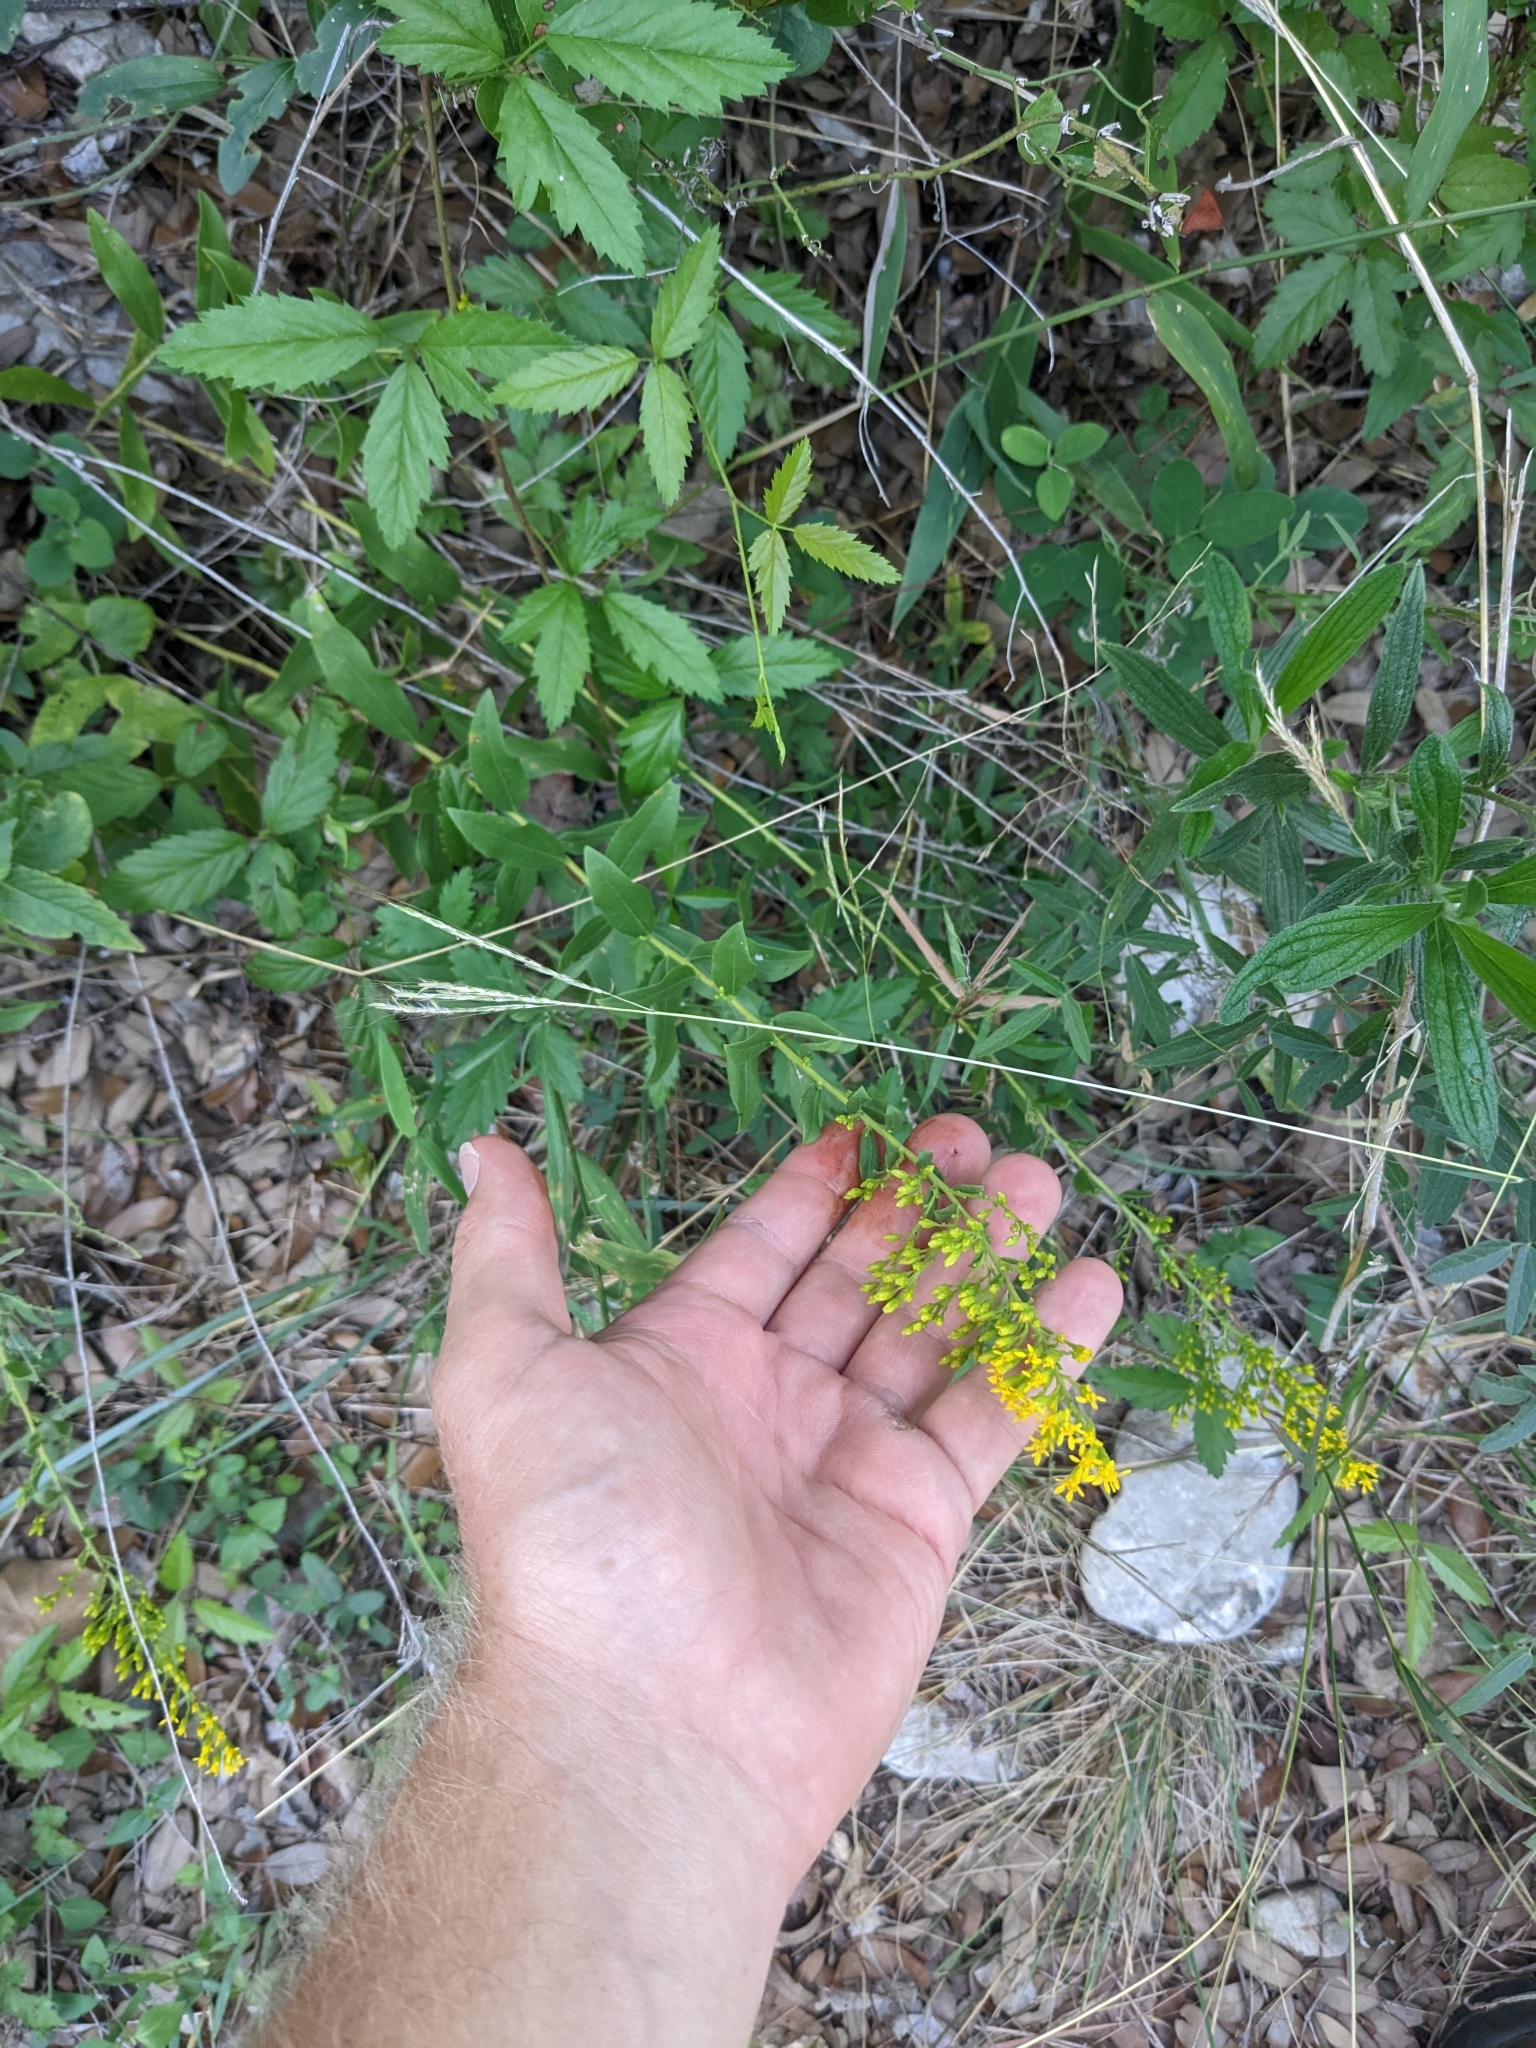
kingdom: Plantae
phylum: Tracheophyta
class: Magnoliopsida
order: Asterales
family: Asteraceae
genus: Solidago
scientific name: Solidago radula
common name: Western rough goldenrod
